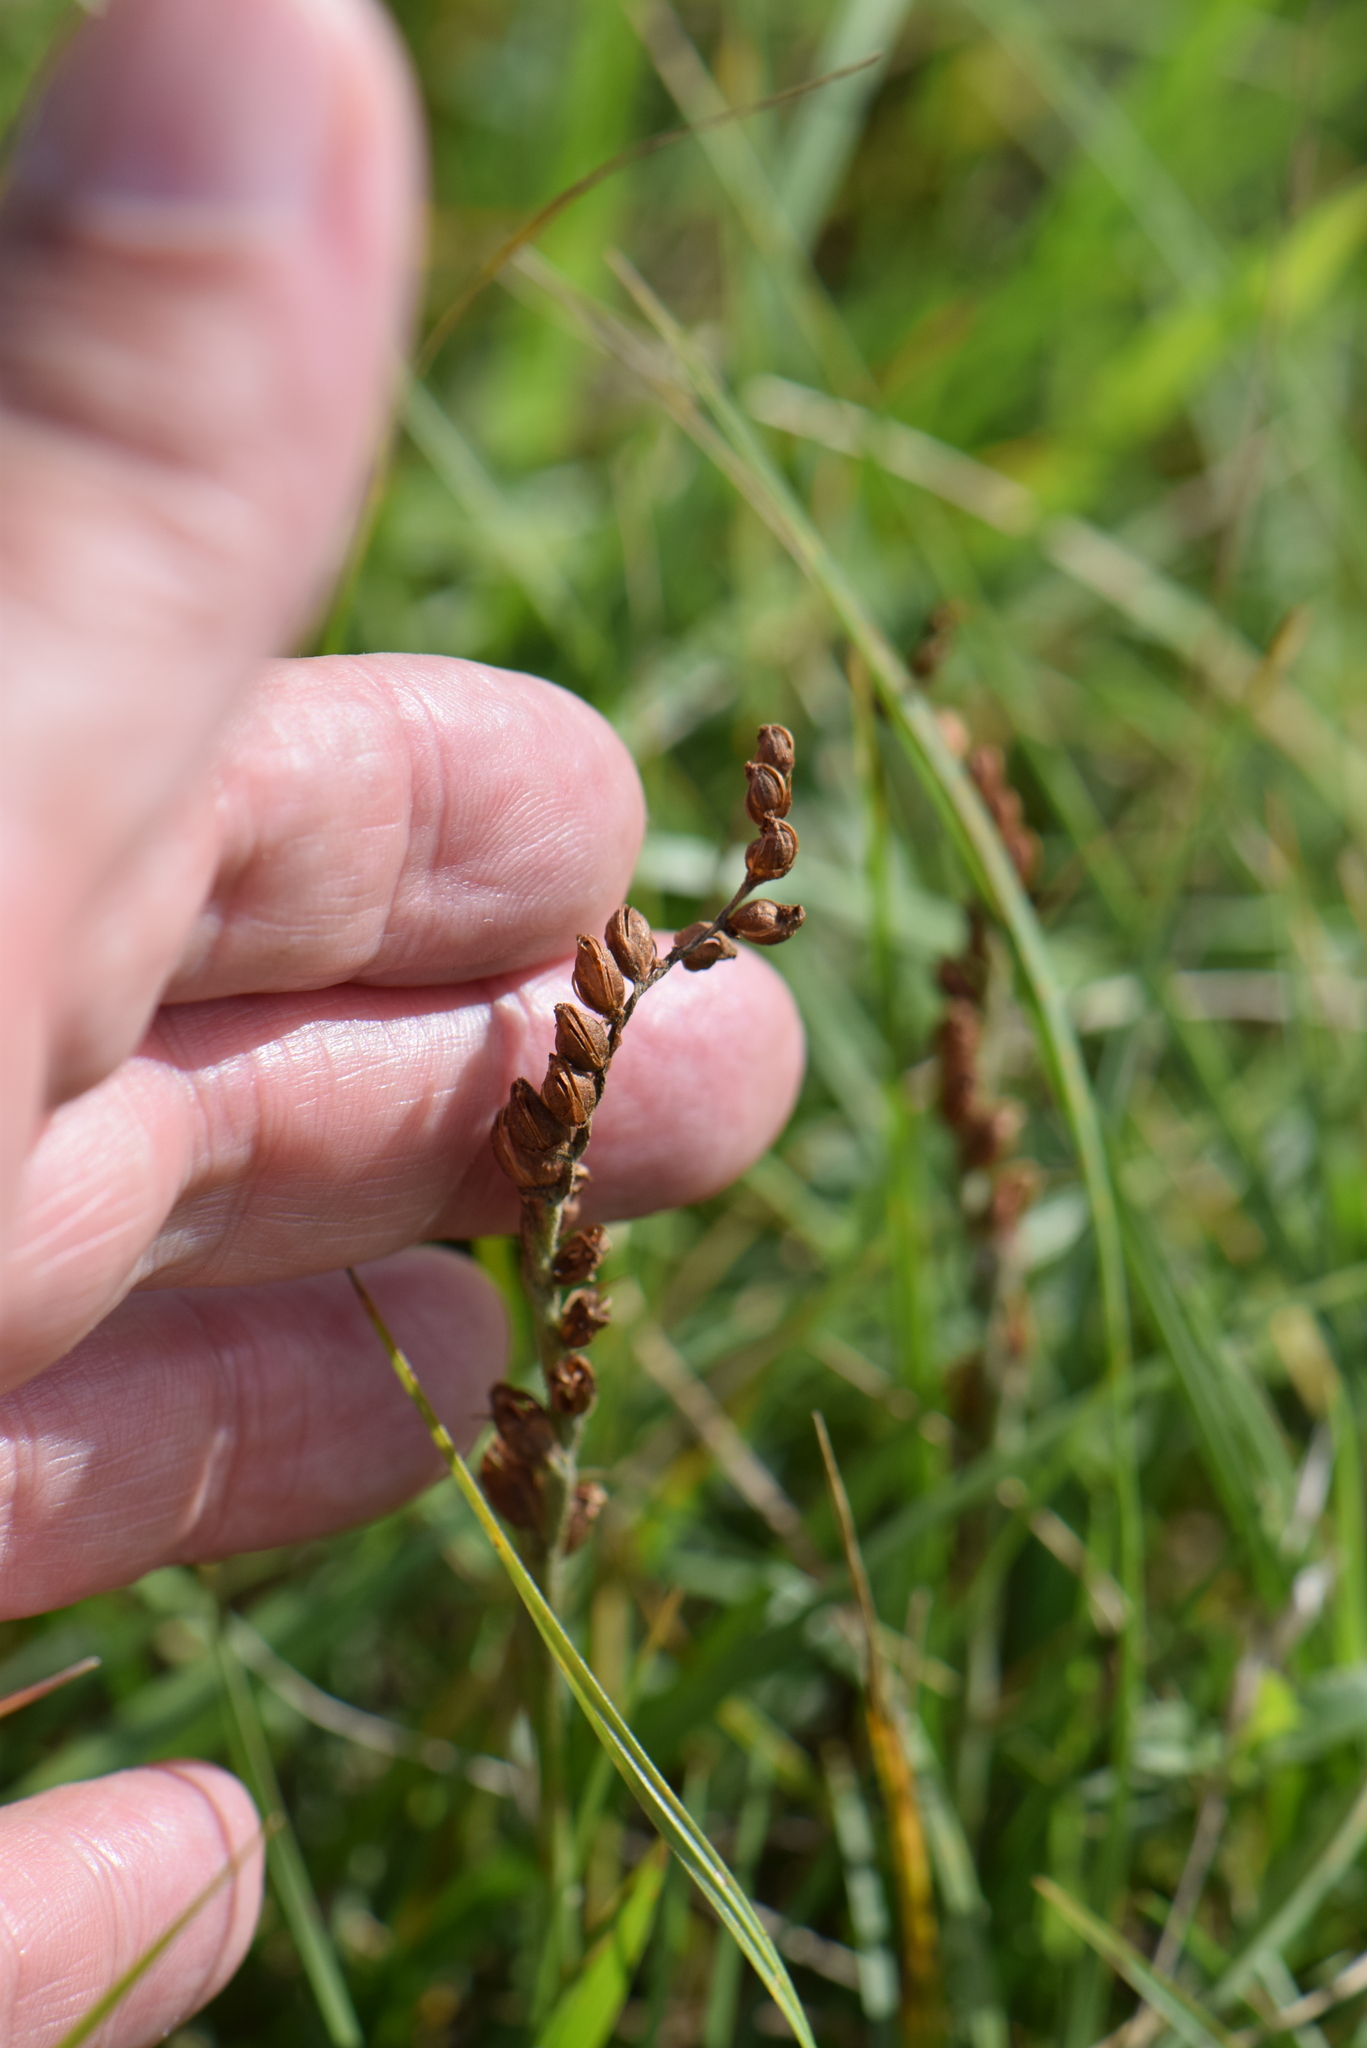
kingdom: Plantae
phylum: Tracheophyta
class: Liliopsida
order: Asparagales
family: Orchidaceae
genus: Spiranthes
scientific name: Spiranthes spiralis
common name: Autumn lady's-tresses
